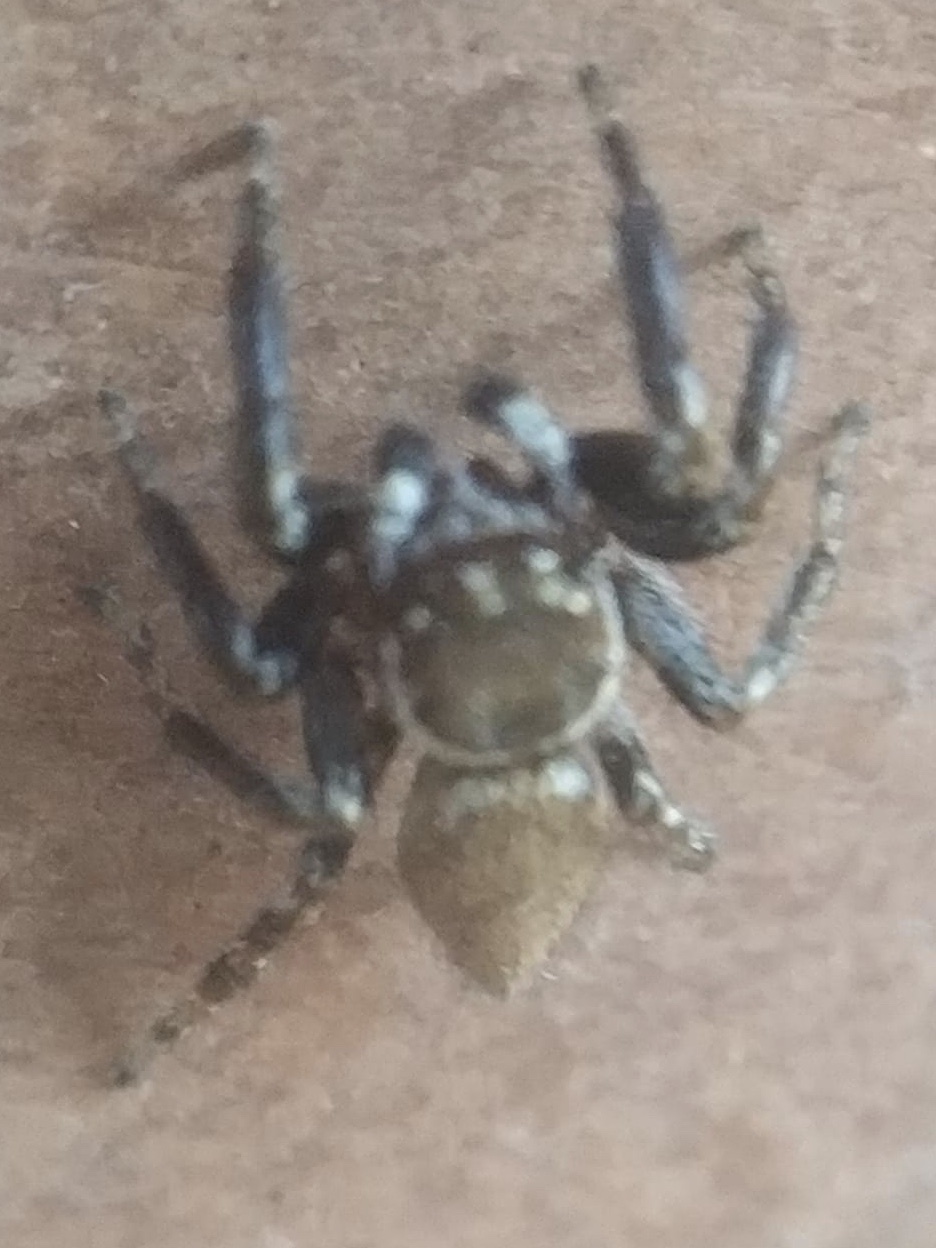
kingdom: Animalia
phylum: Arthropoda
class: Arachnida
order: Araneae
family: Salticidae
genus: Evarcha
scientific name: Evarcha jucunda
